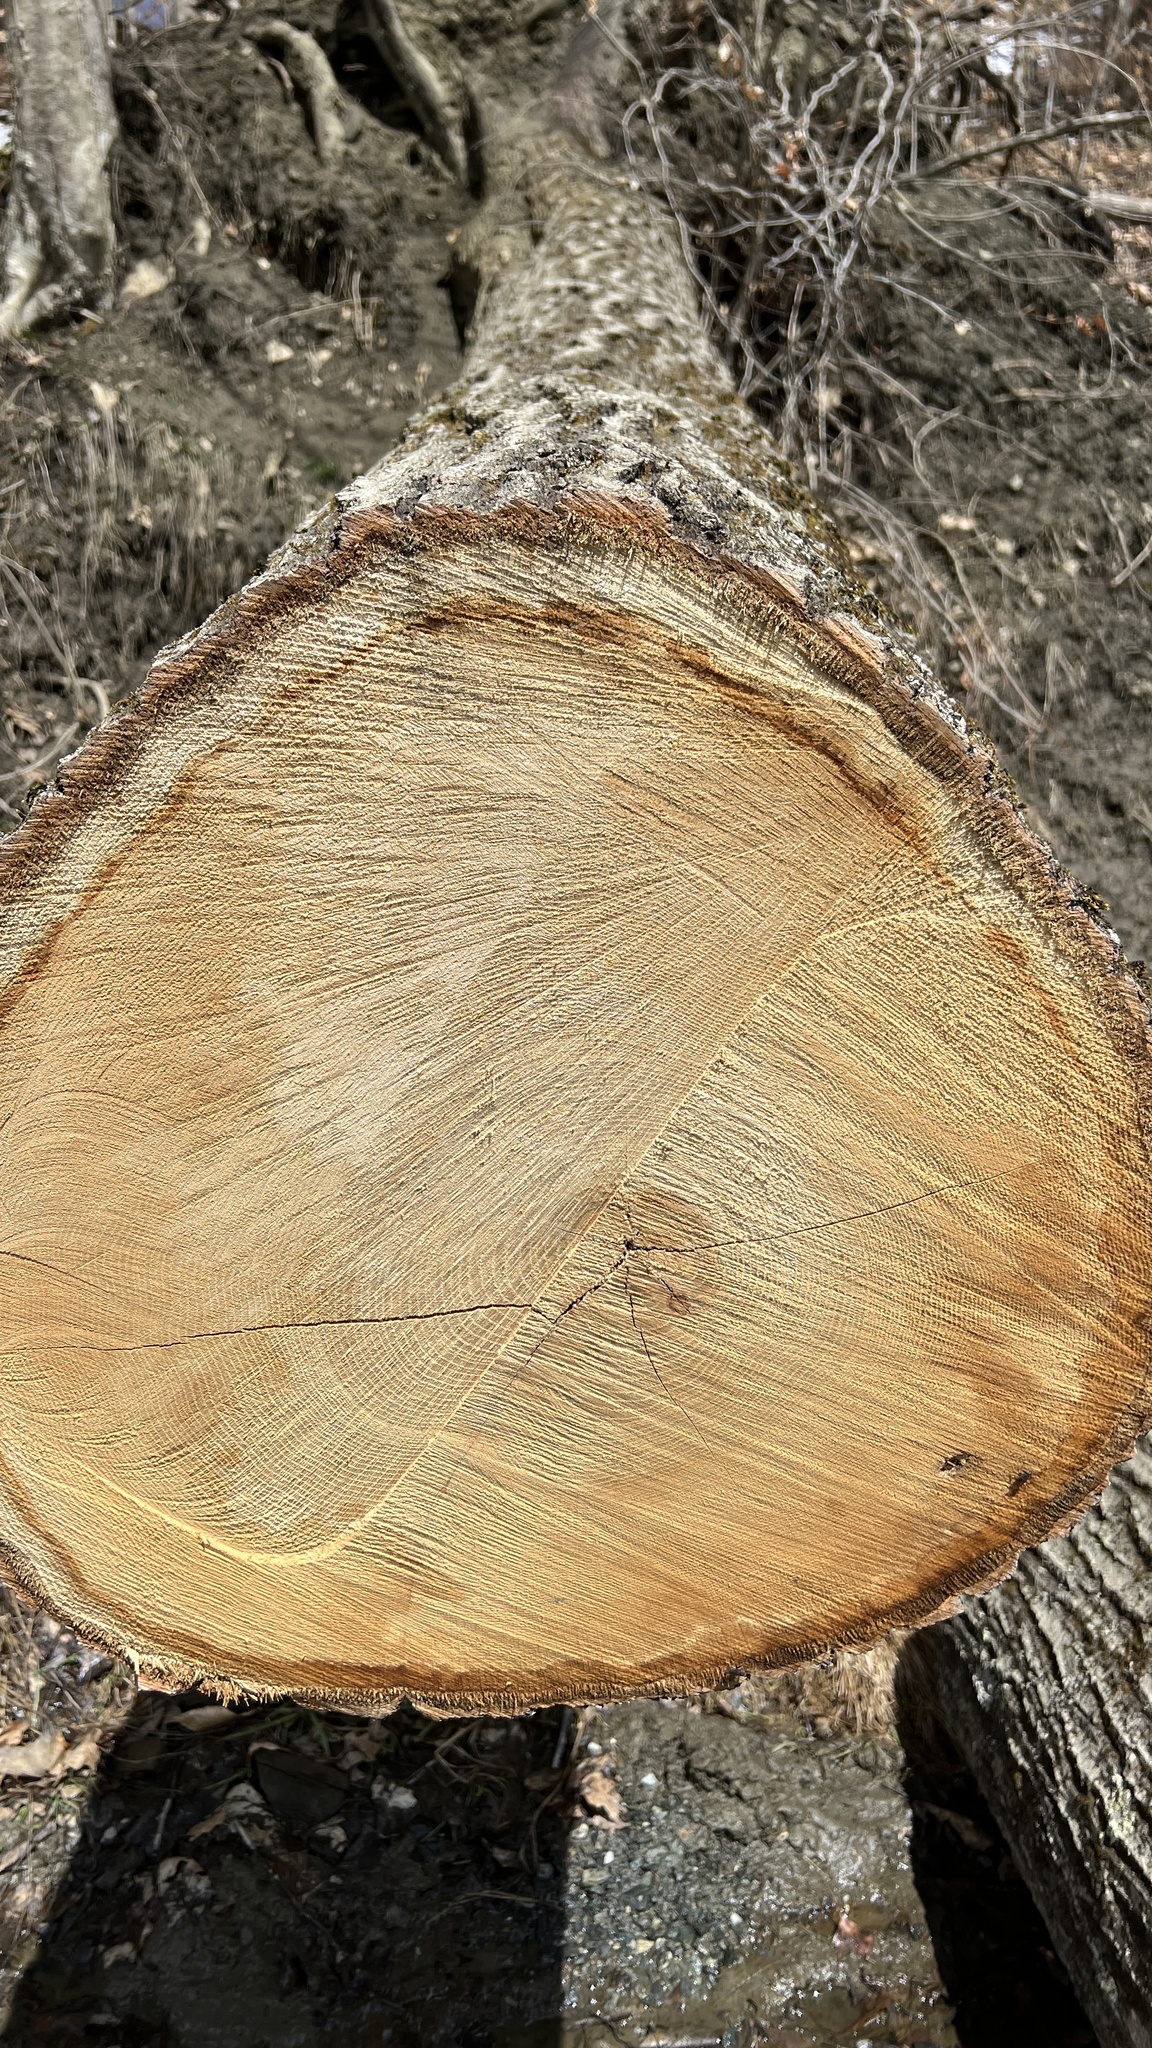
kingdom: Plantae
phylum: Tracheophyta
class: Magnoliopsida
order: Fagales
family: Fagaceae
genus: Quercus
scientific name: Quercus rubra
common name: Red oak
